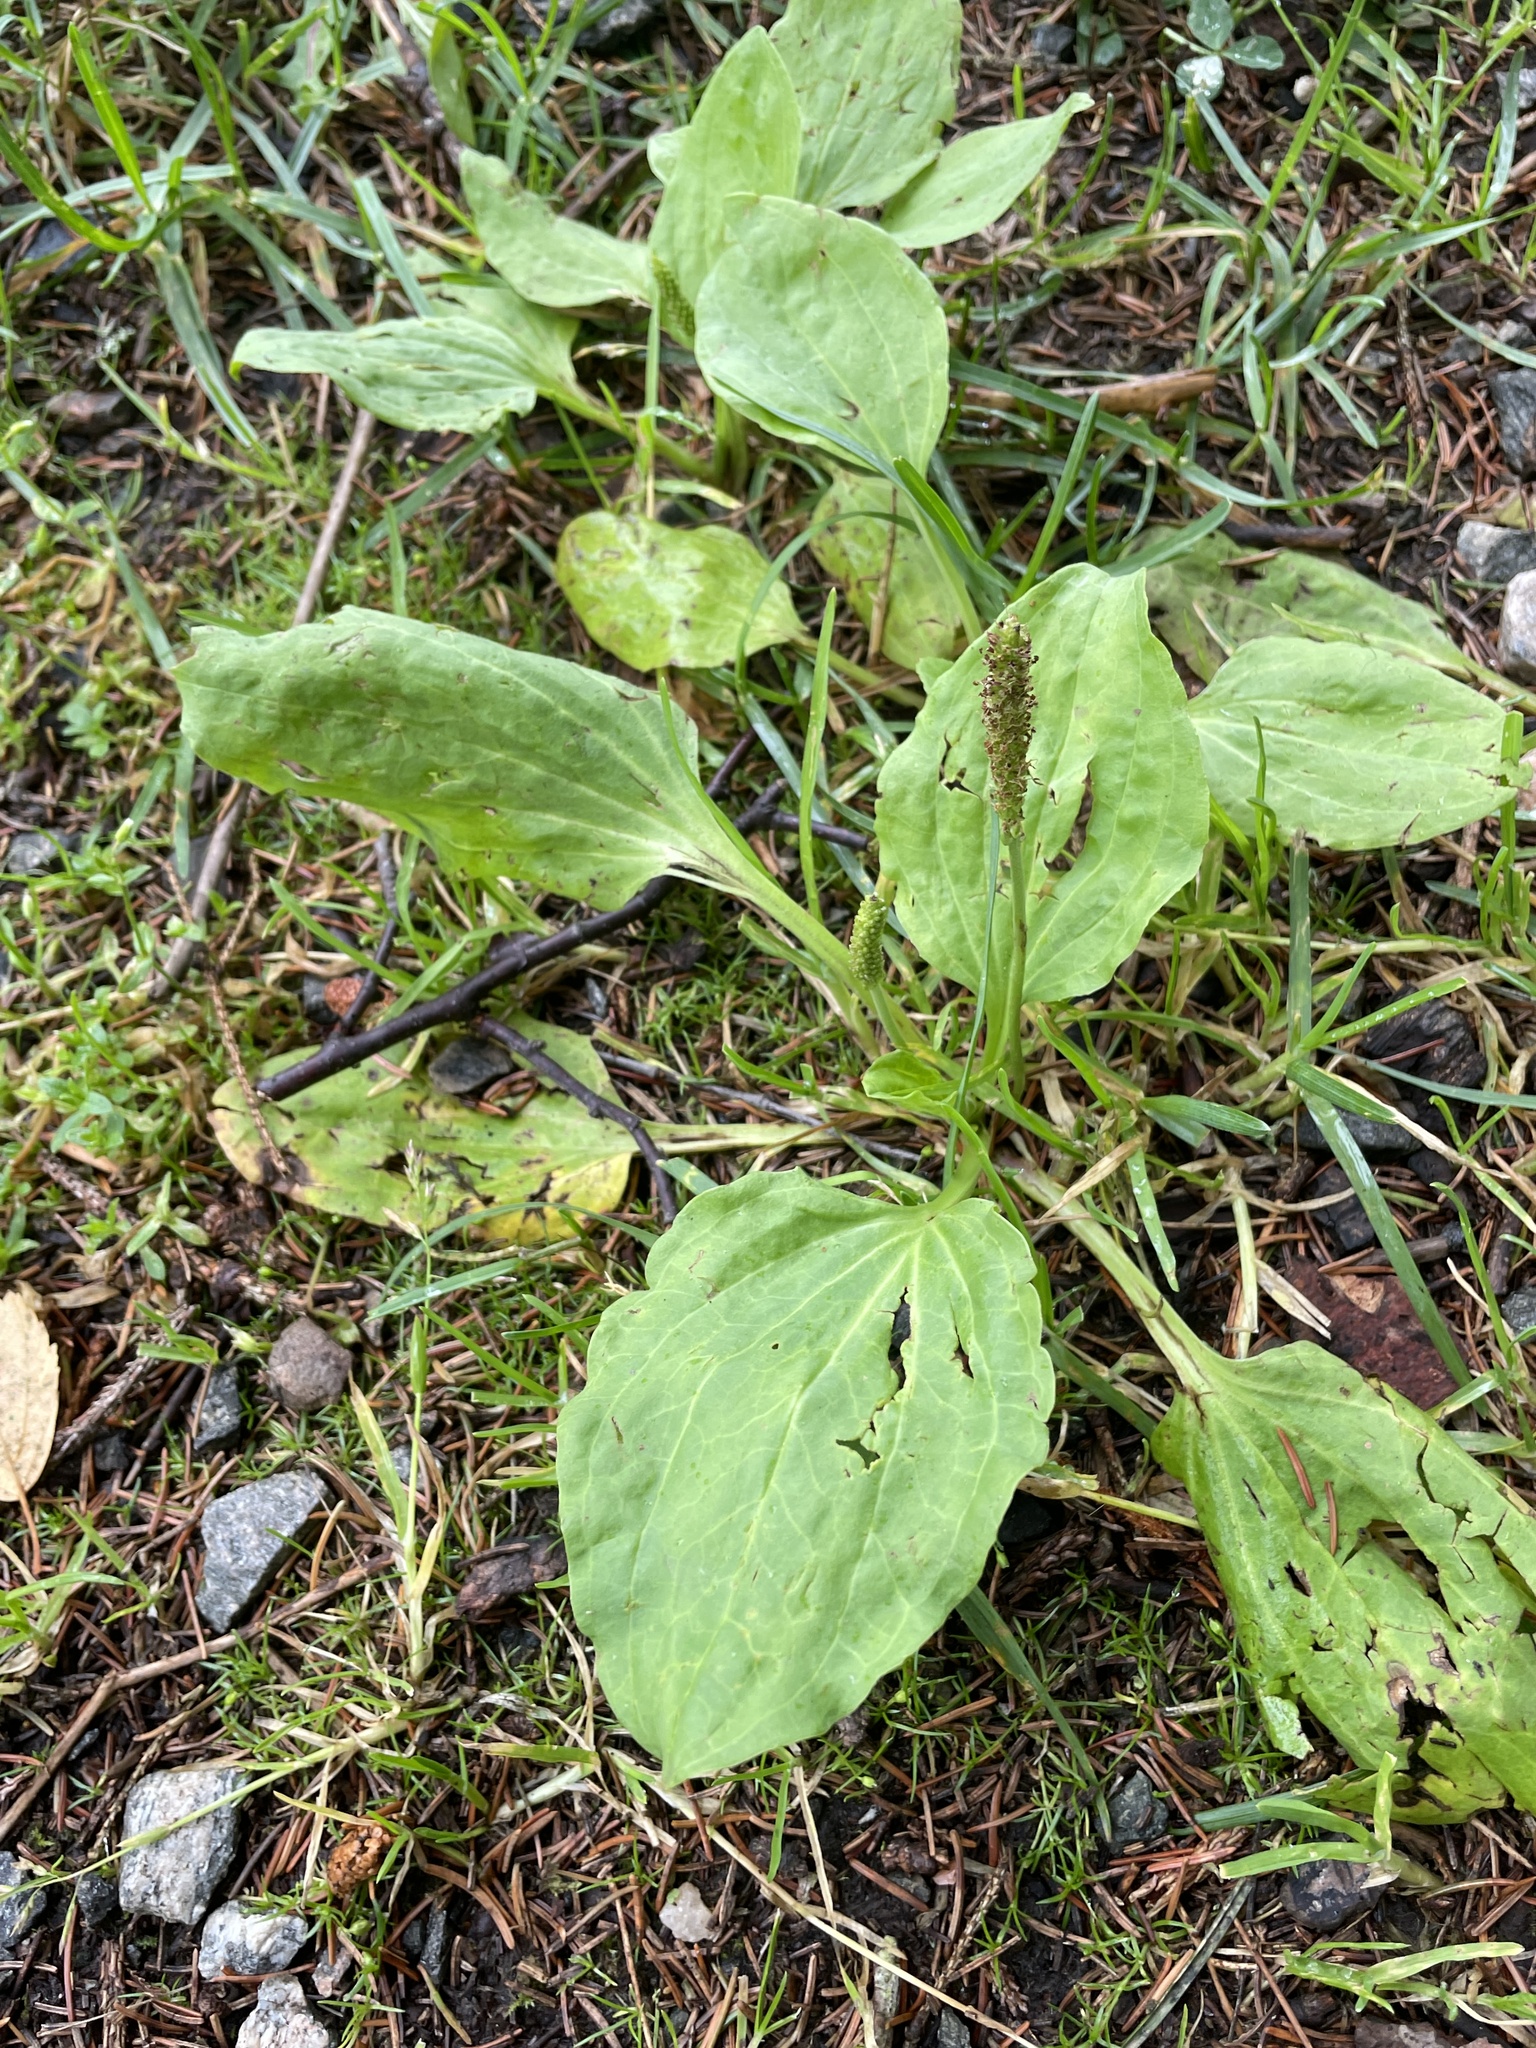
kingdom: Plantae
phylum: Tracheophyta
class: Magnoliopsida
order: Lamiales
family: Plantaginaceae
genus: Plantago
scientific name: Plantago major
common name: Common plantain
